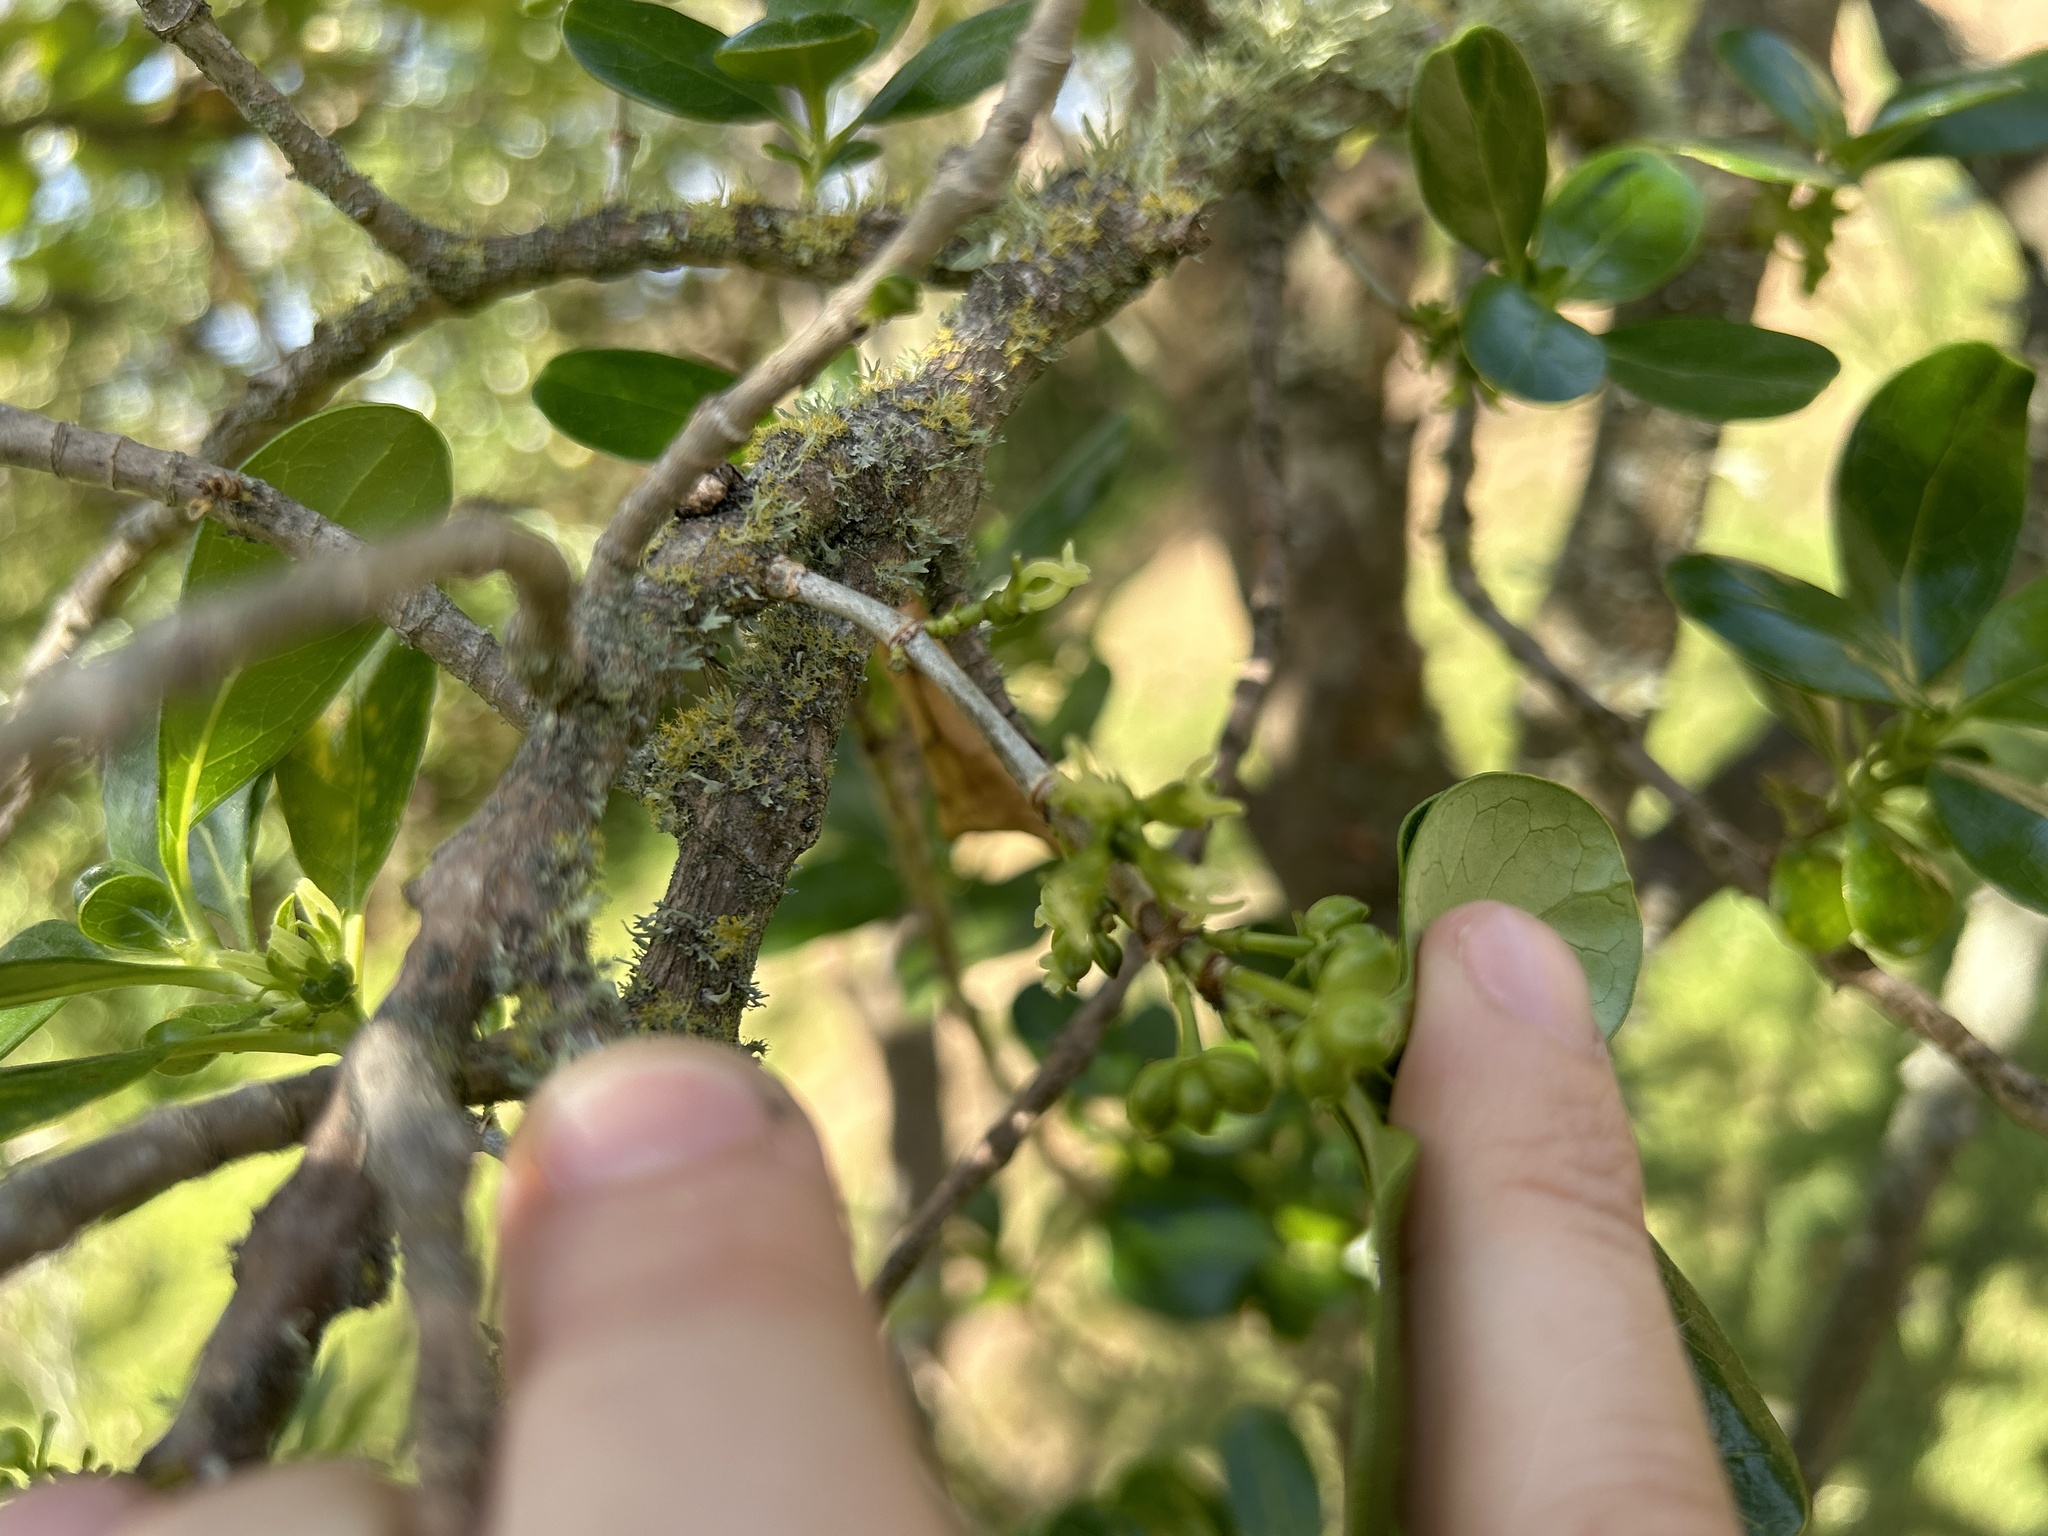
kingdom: Plantae
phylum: Tracheophyta
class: Magnoliopsida
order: Gentianales
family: Rubiaceae
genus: Coprosma
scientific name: Coprosma repens
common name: Tree bedstraw
